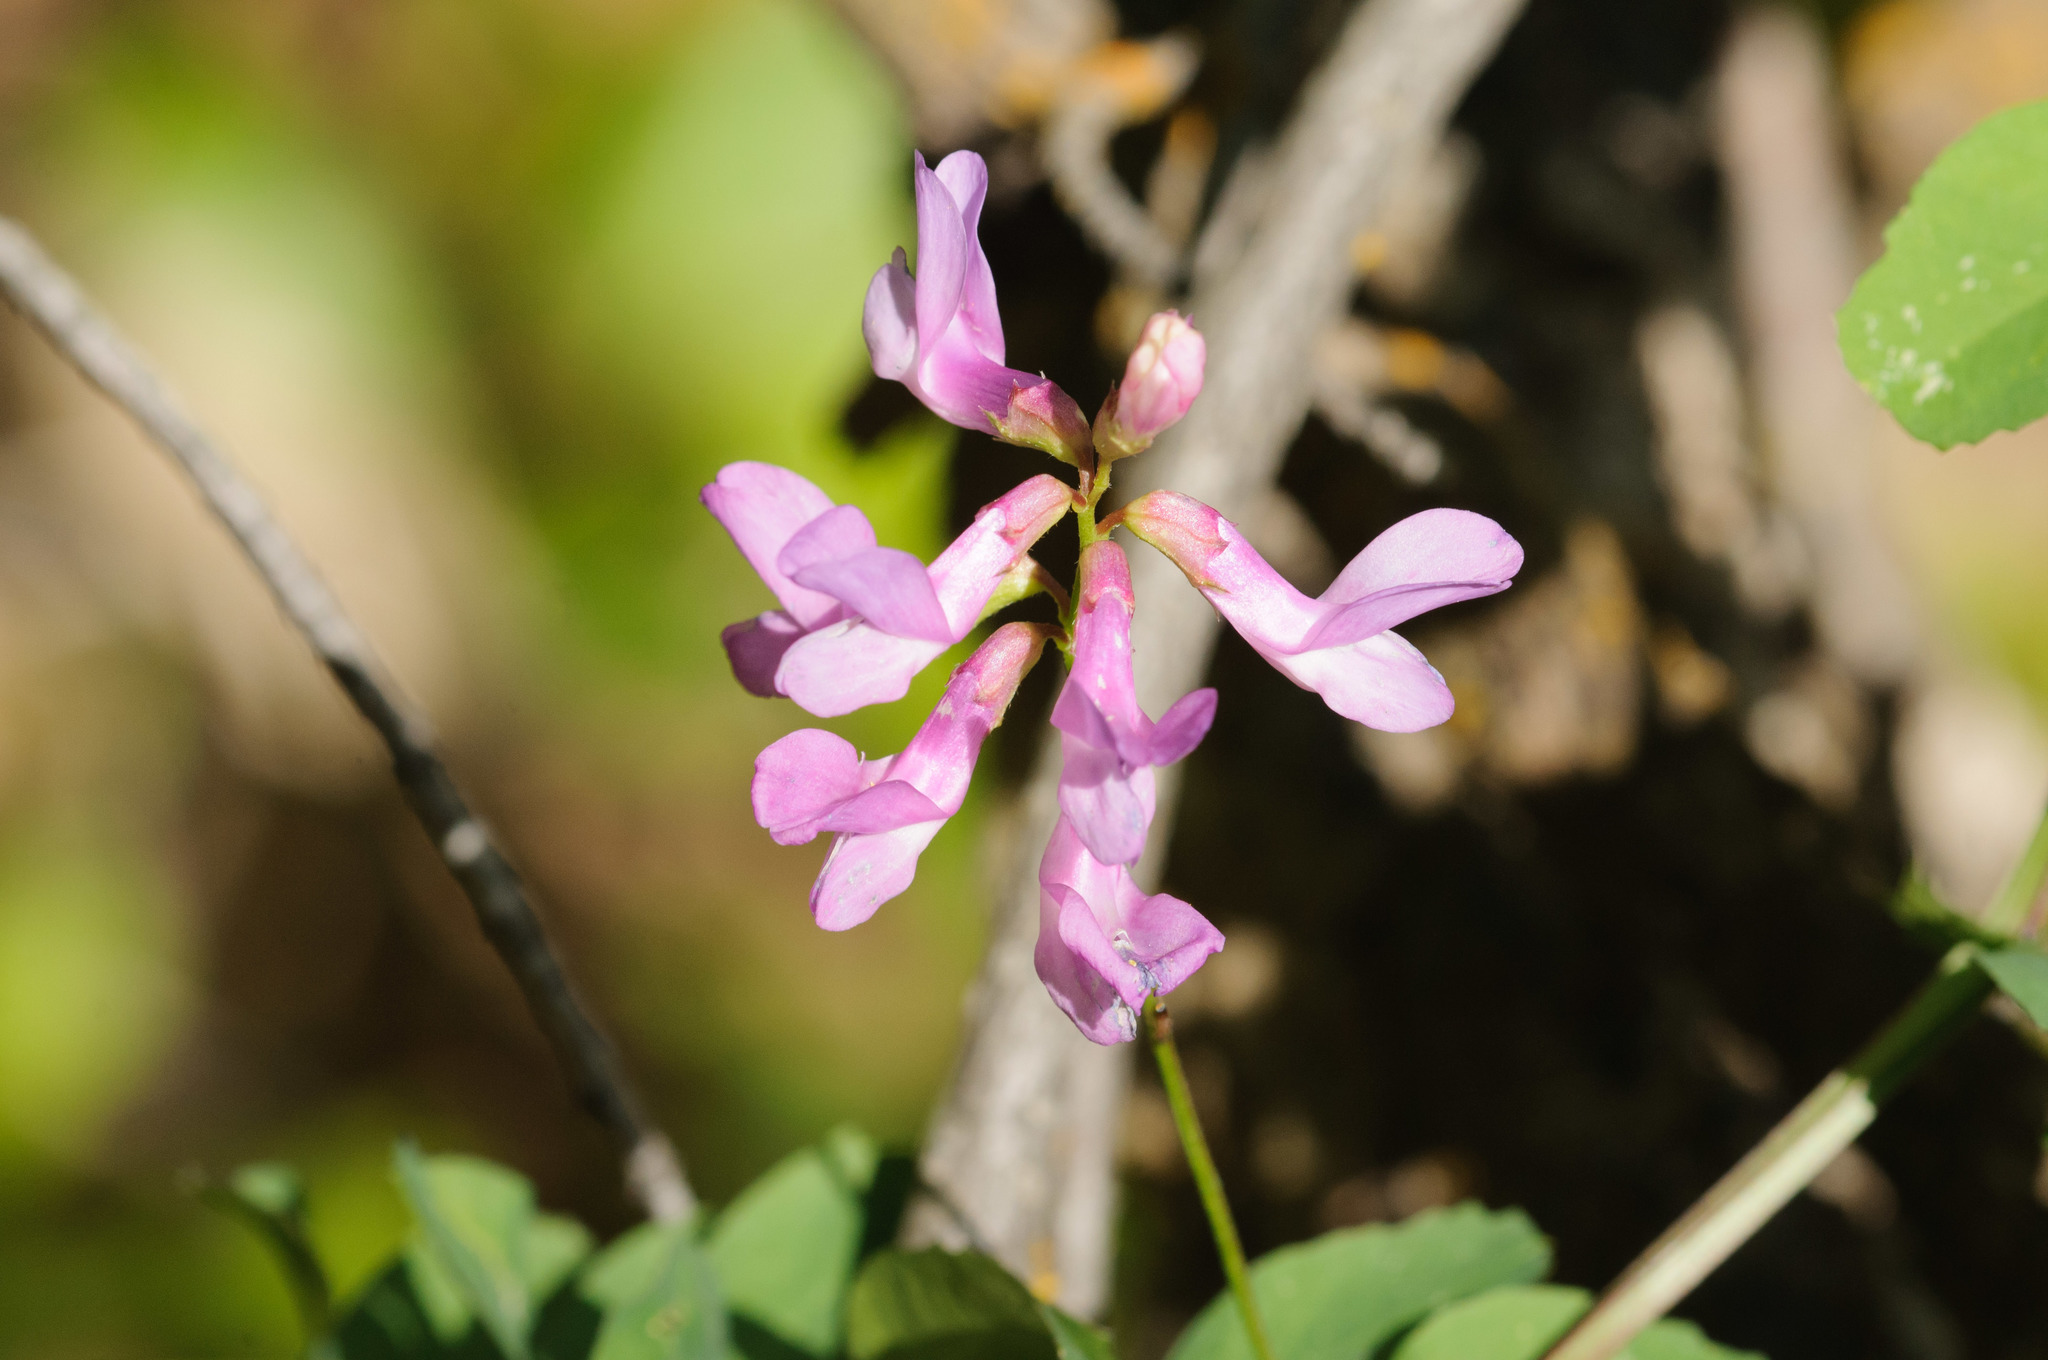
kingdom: Plantae
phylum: Tracheophyta
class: Magnoliopsida
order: Fabales
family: Fabaceae
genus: Vicia
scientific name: Vicia americana
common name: American vetch
